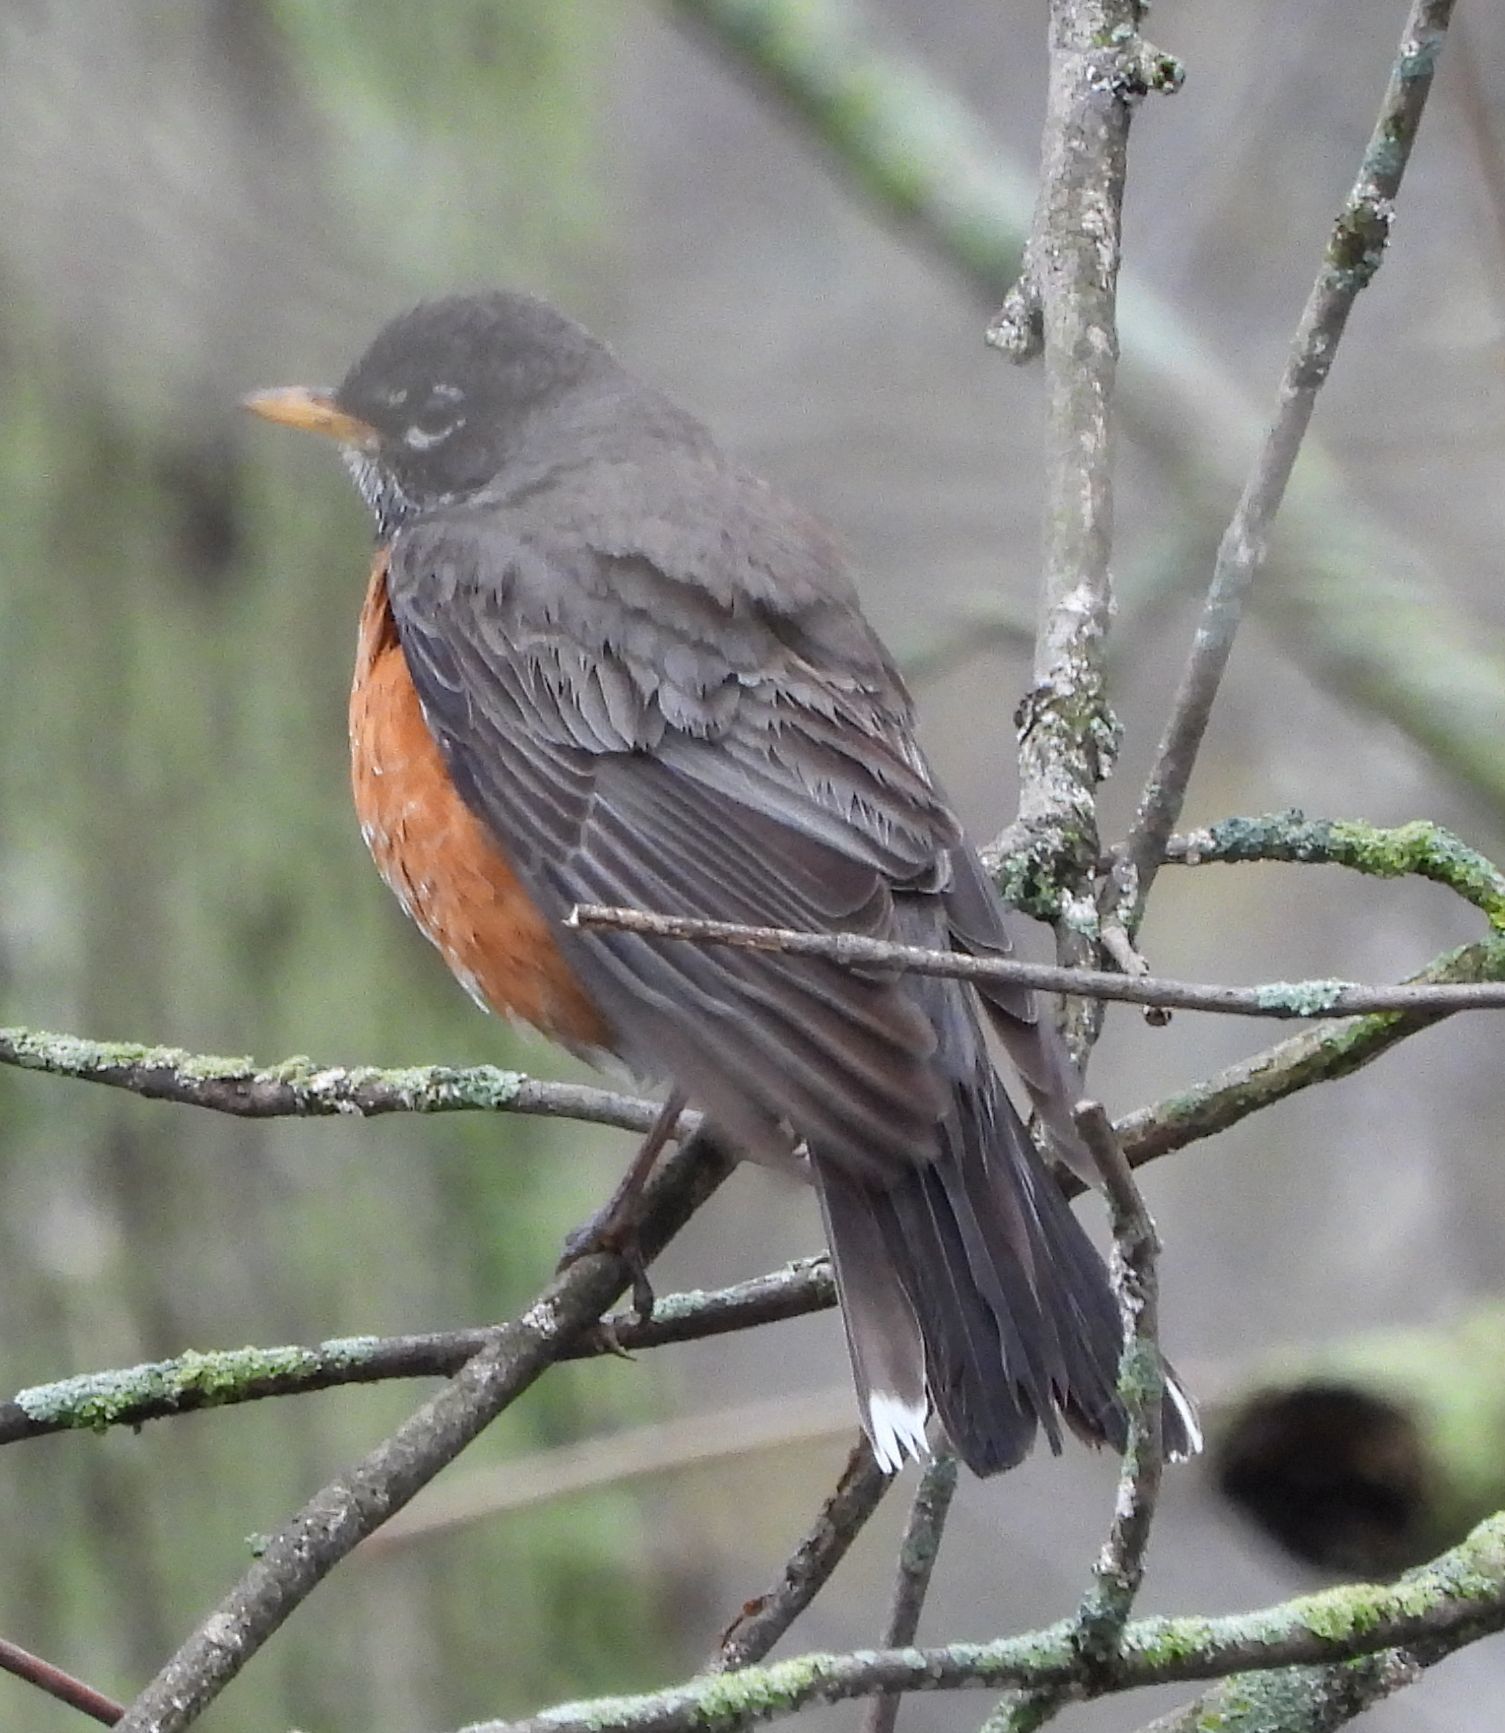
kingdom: Animalia
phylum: Chordata
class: Aves
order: Passeriformes
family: Turdidae
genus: Turdus
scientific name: Turdus migratorius
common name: American robin
